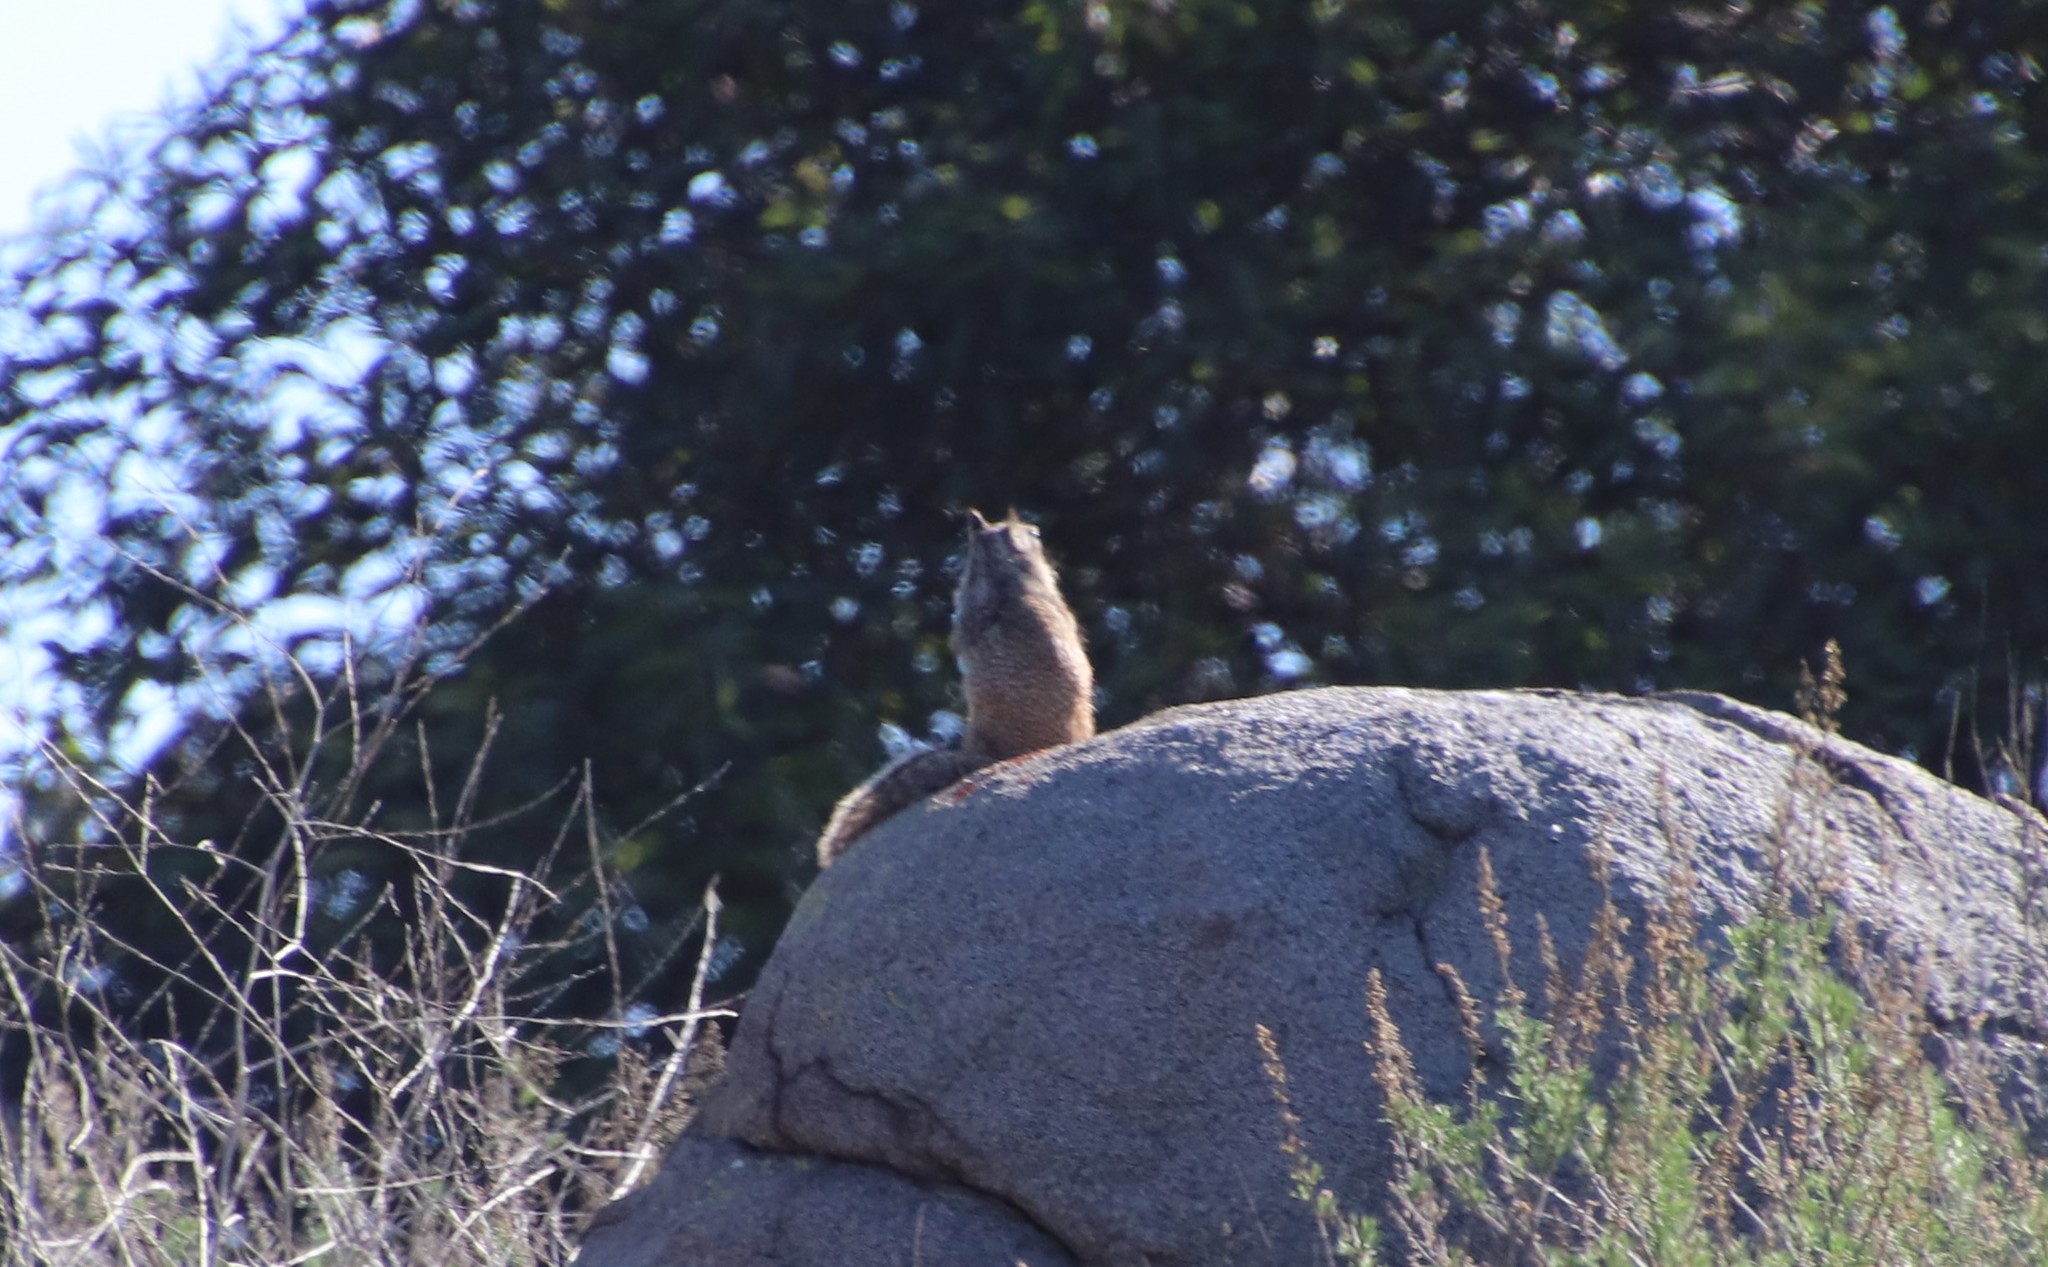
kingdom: Animalia
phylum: Chordata
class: Mammalia
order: Rodentia
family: Sciuridae
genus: Otospermophilus
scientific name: Otospermophilus beecheyi
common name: California ground squirrel
